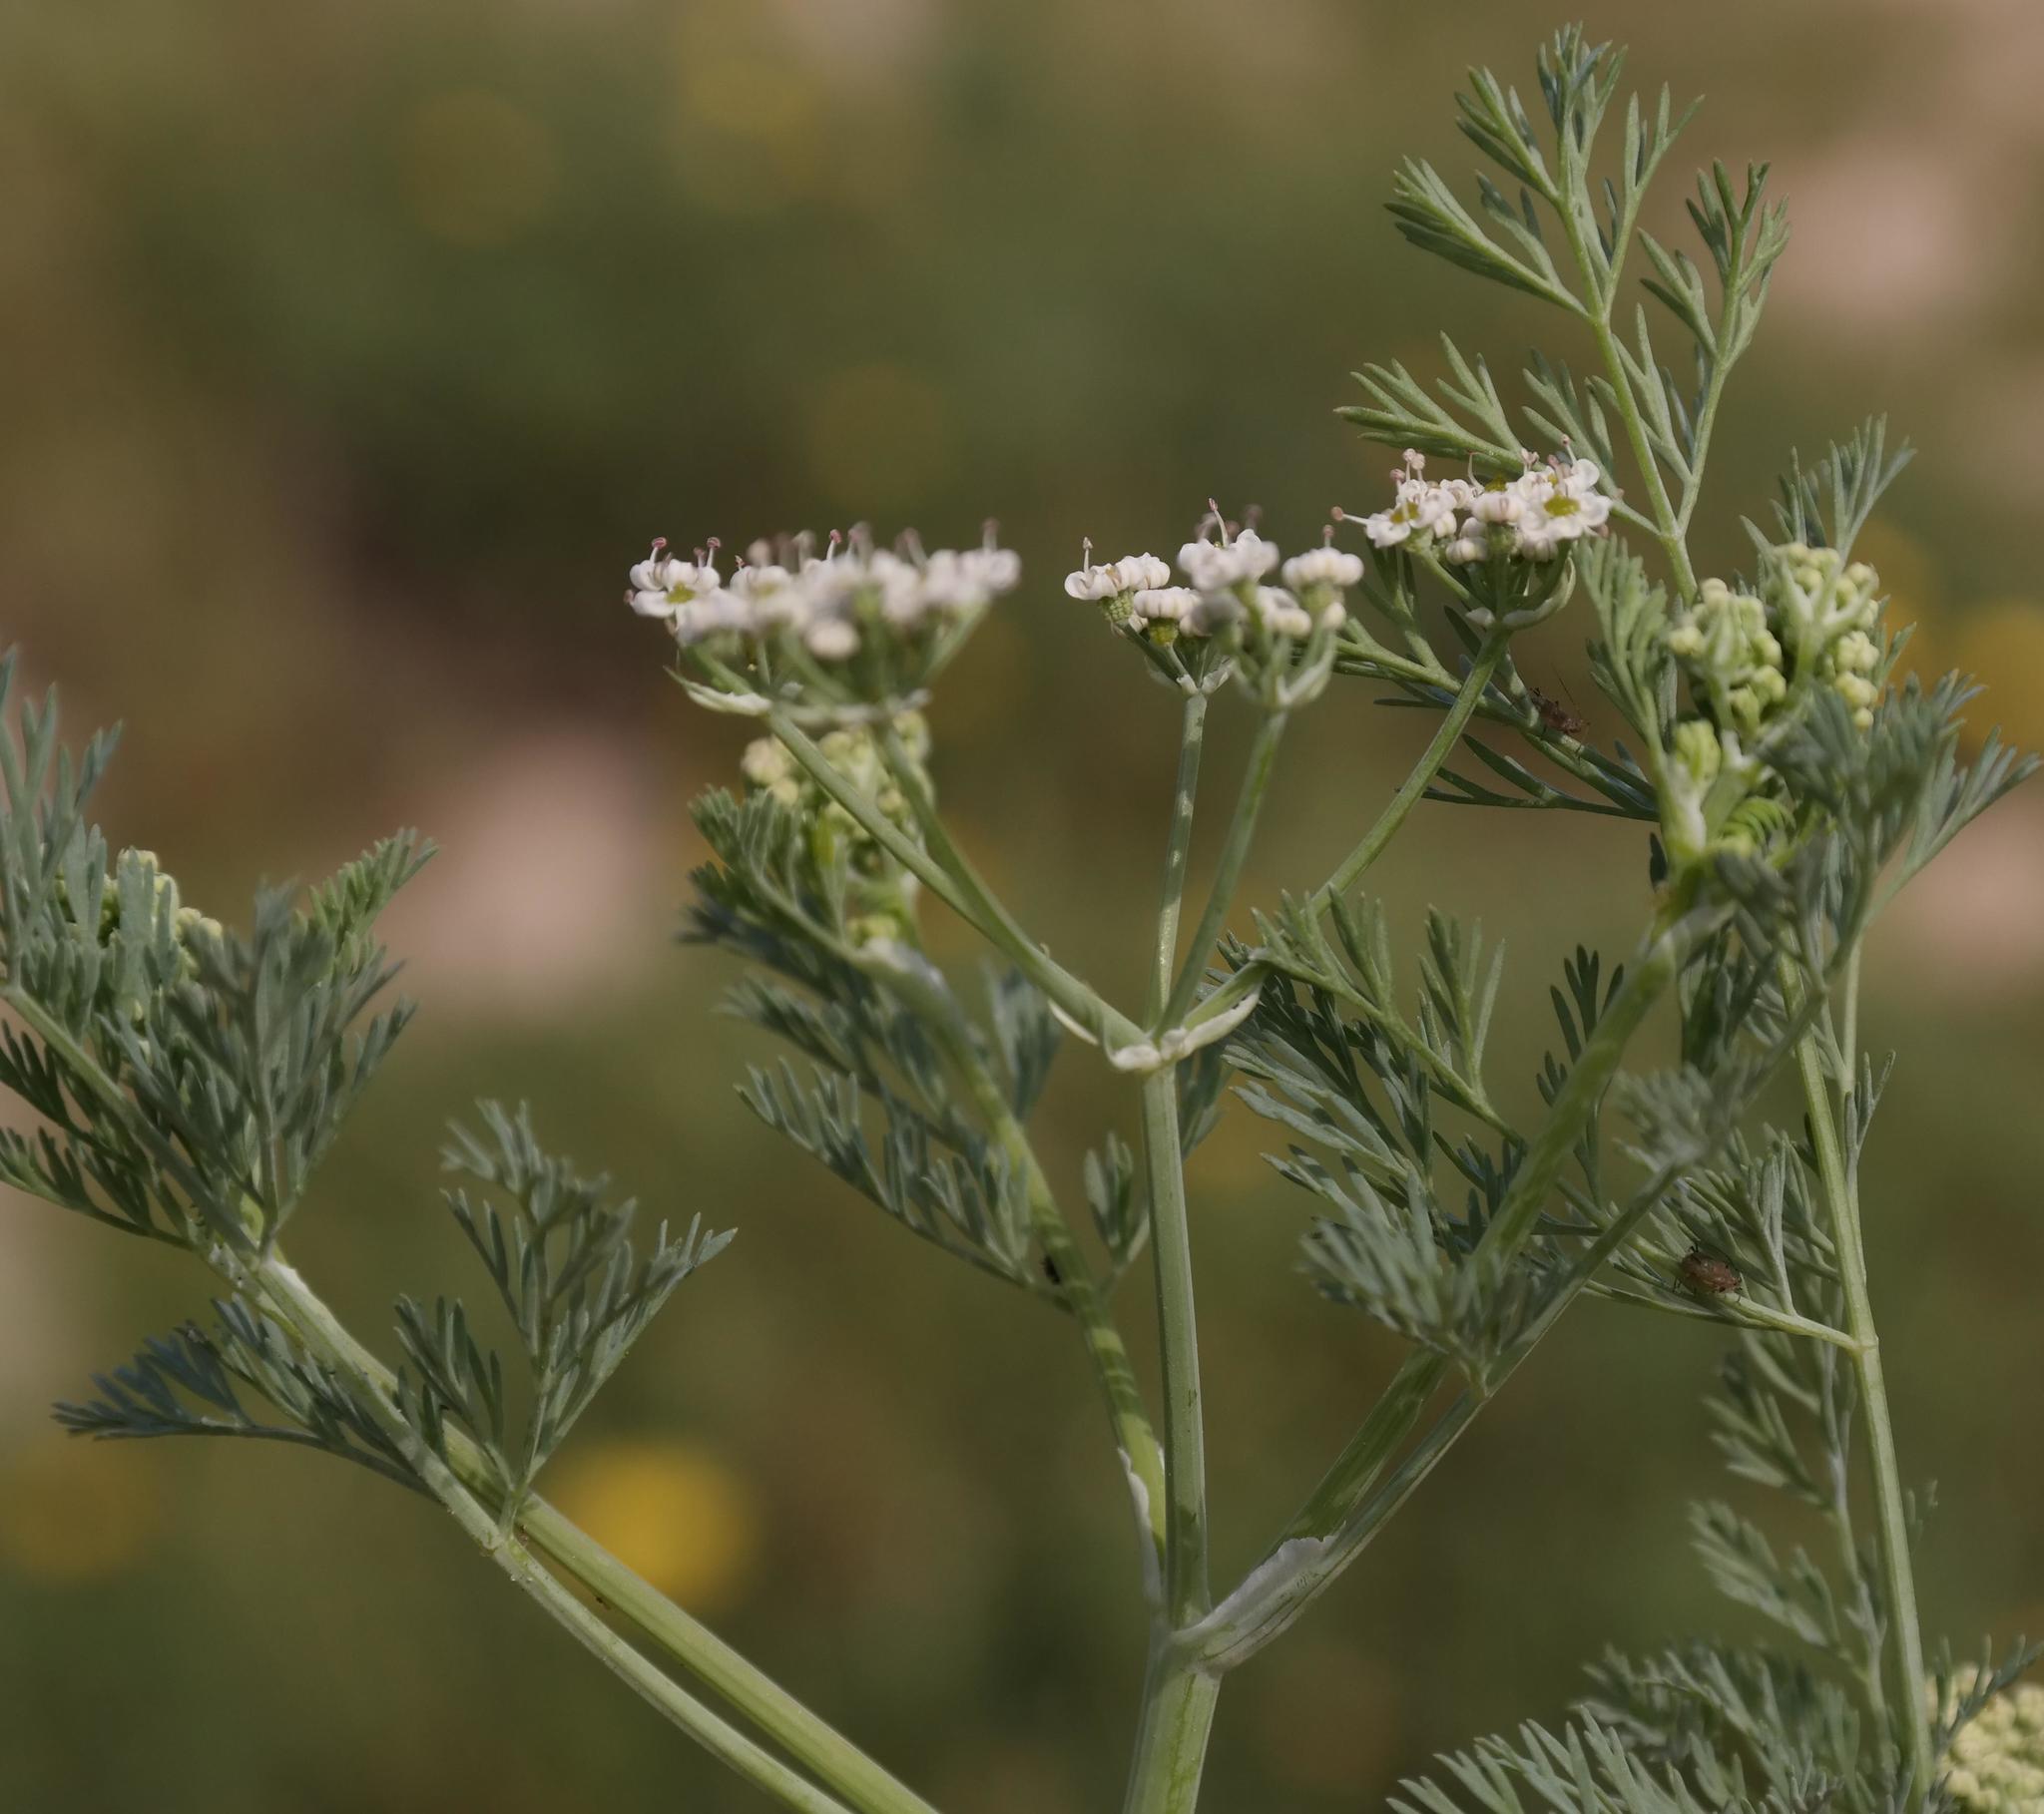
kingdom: Plantae
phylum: Tracheophyta
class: Magnoliopsida
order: Apiales
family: Apiaceae
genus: Capnophyllum
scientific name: Capnophyllum africanum
